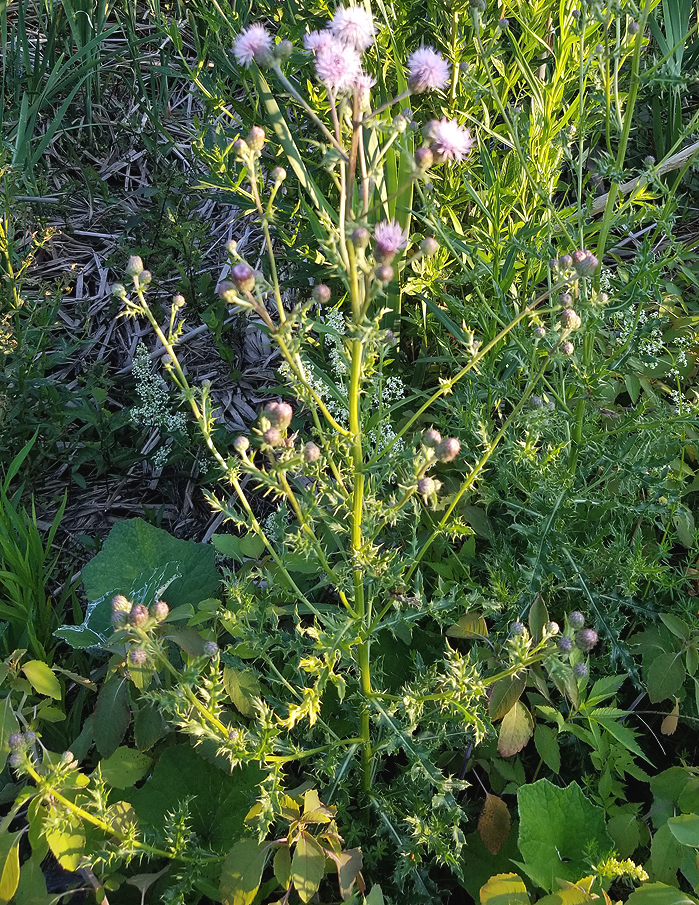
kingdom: Plantae
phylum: Tracheophyta
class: Magnoliopsida
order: Asterales
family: Asteraceae
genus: Cirsium
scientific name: Cirsium arvense
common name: Creeping thistle
